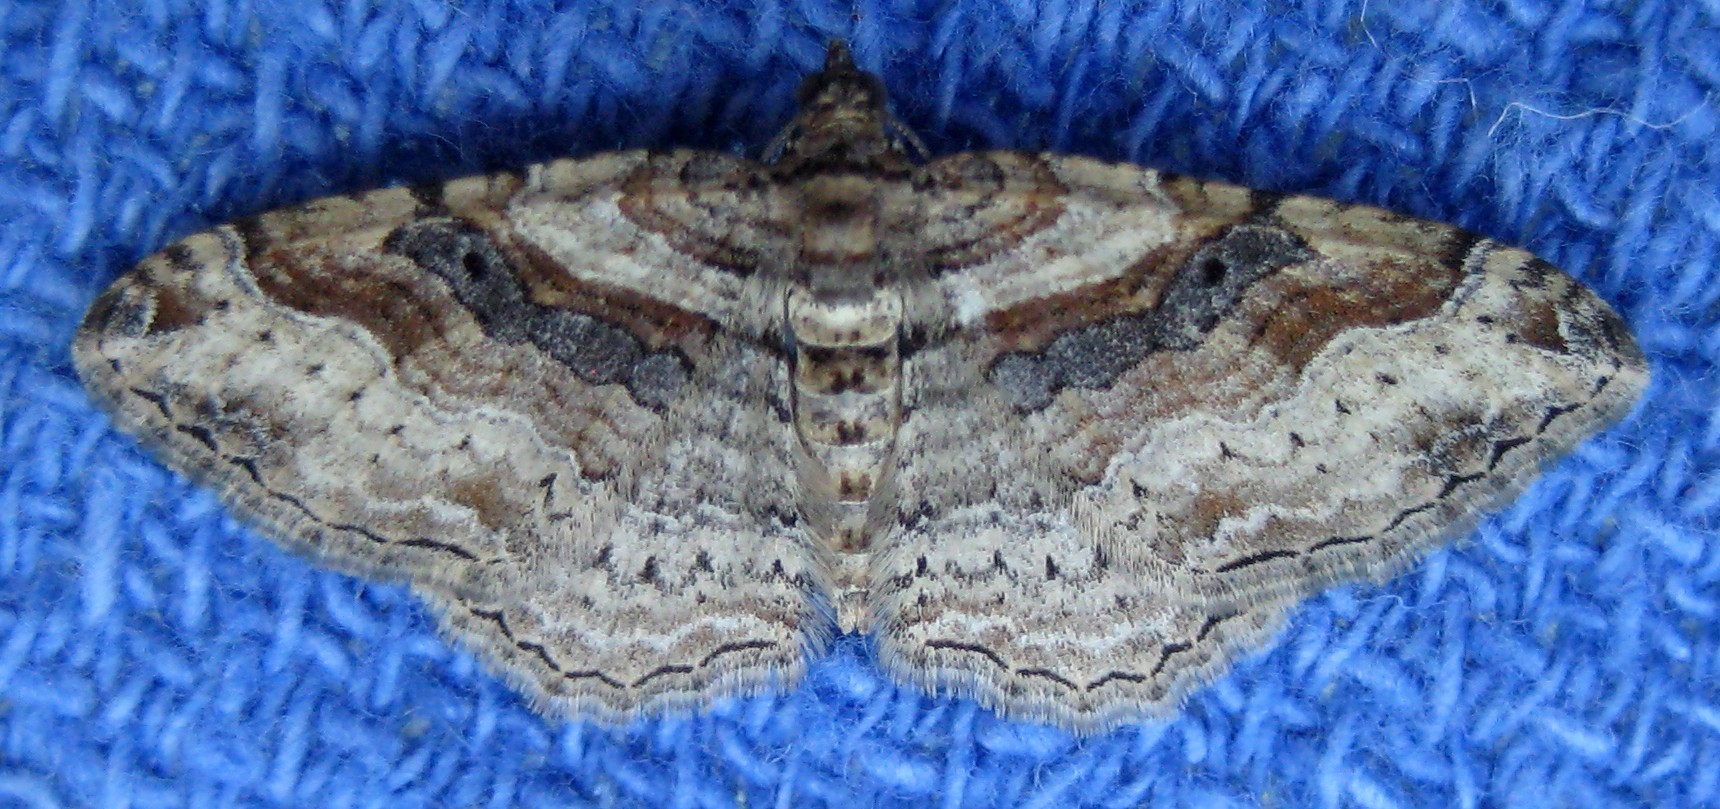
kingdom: Animalia
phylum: Arthropoda
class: Insecta
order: Lepidoptera
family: Geometridae
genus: Costaconvexa
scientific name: Costaconvexa centrostrigaria
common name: Bent-line carpet
